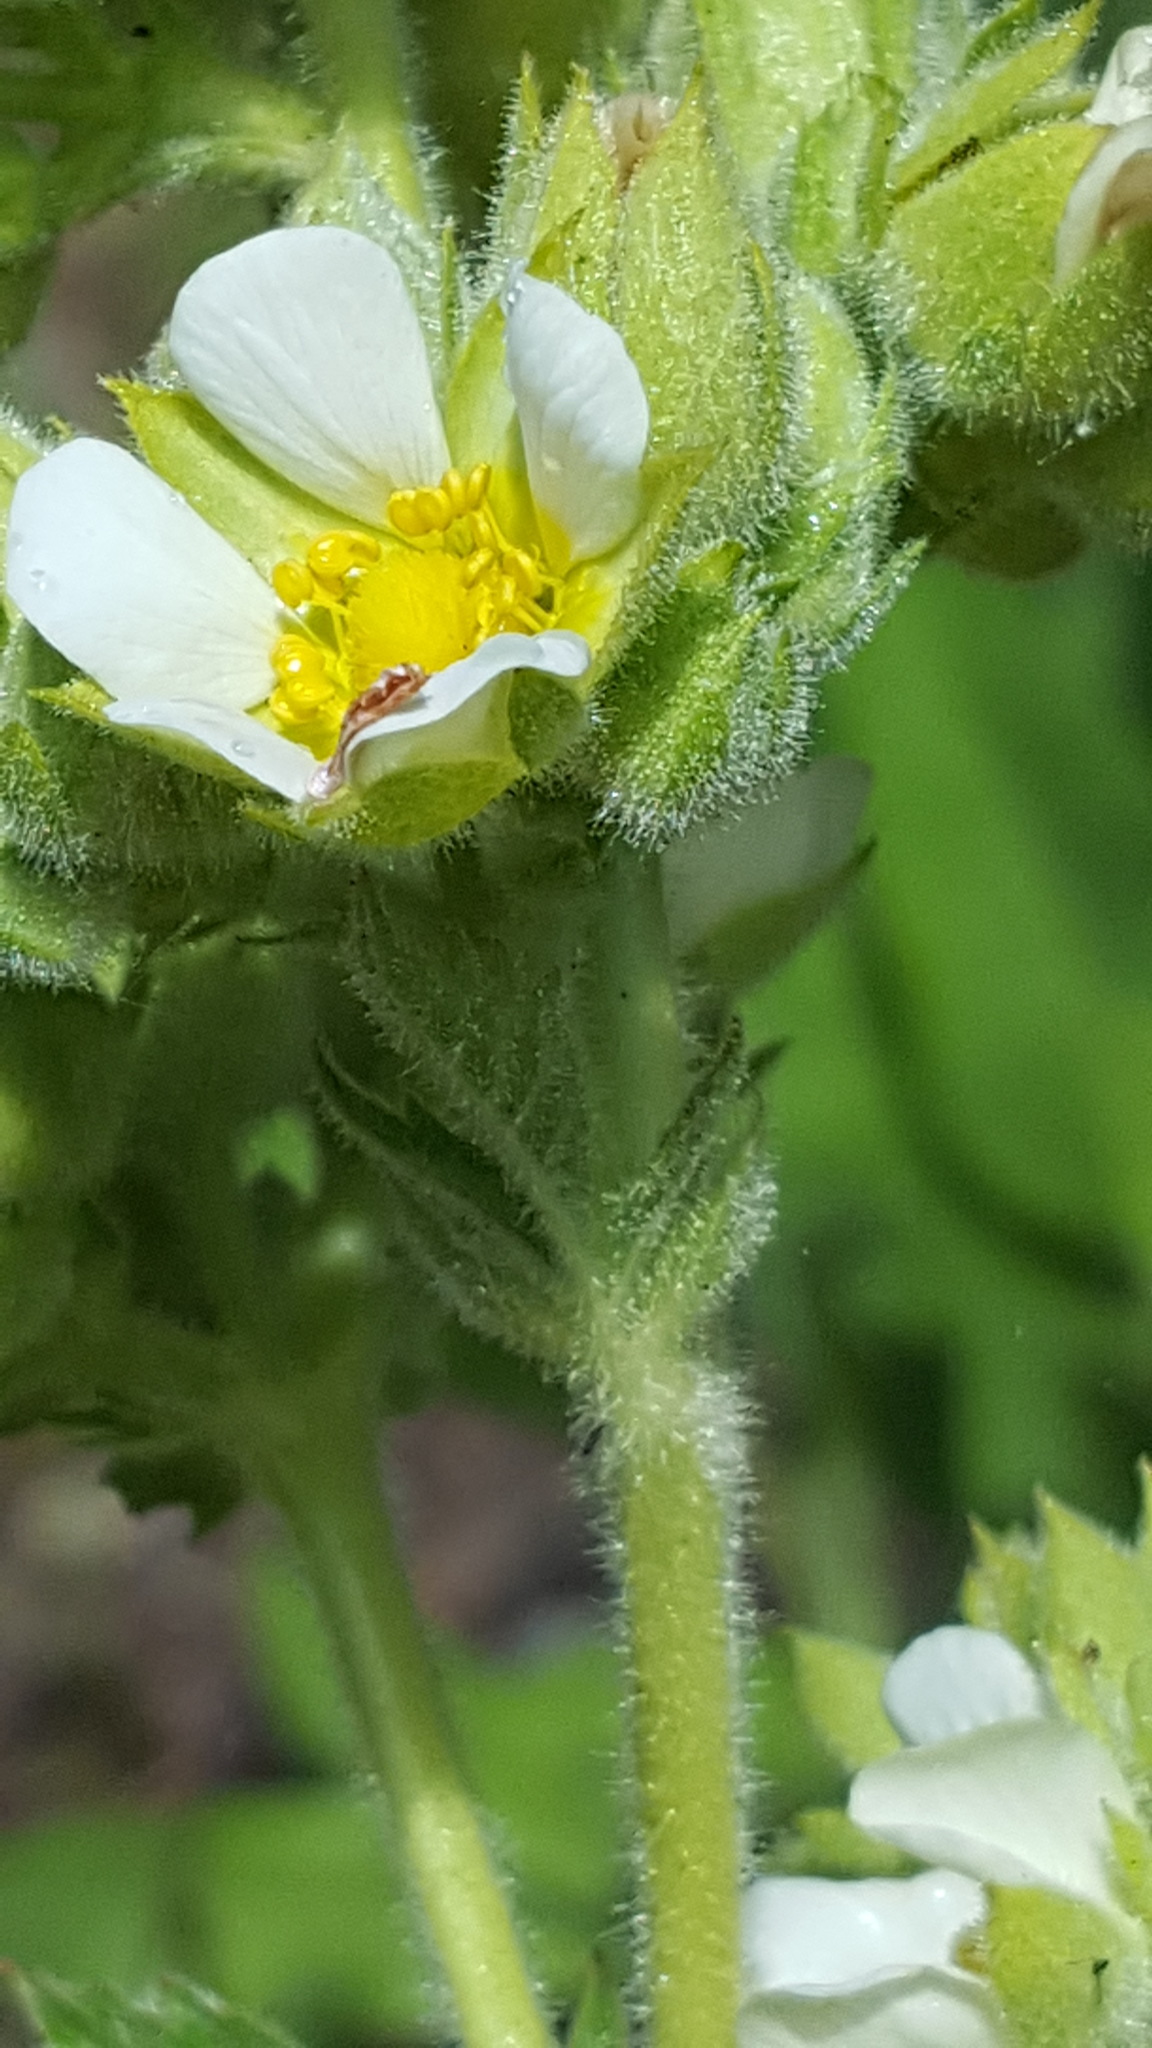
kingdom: Plantae
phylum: Tracheophyta
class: Magnoliopsida
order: Rosales
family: Rosaceae
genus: Drymocallis
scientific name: Drymocallis arguta
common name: Tall cinquefoil
